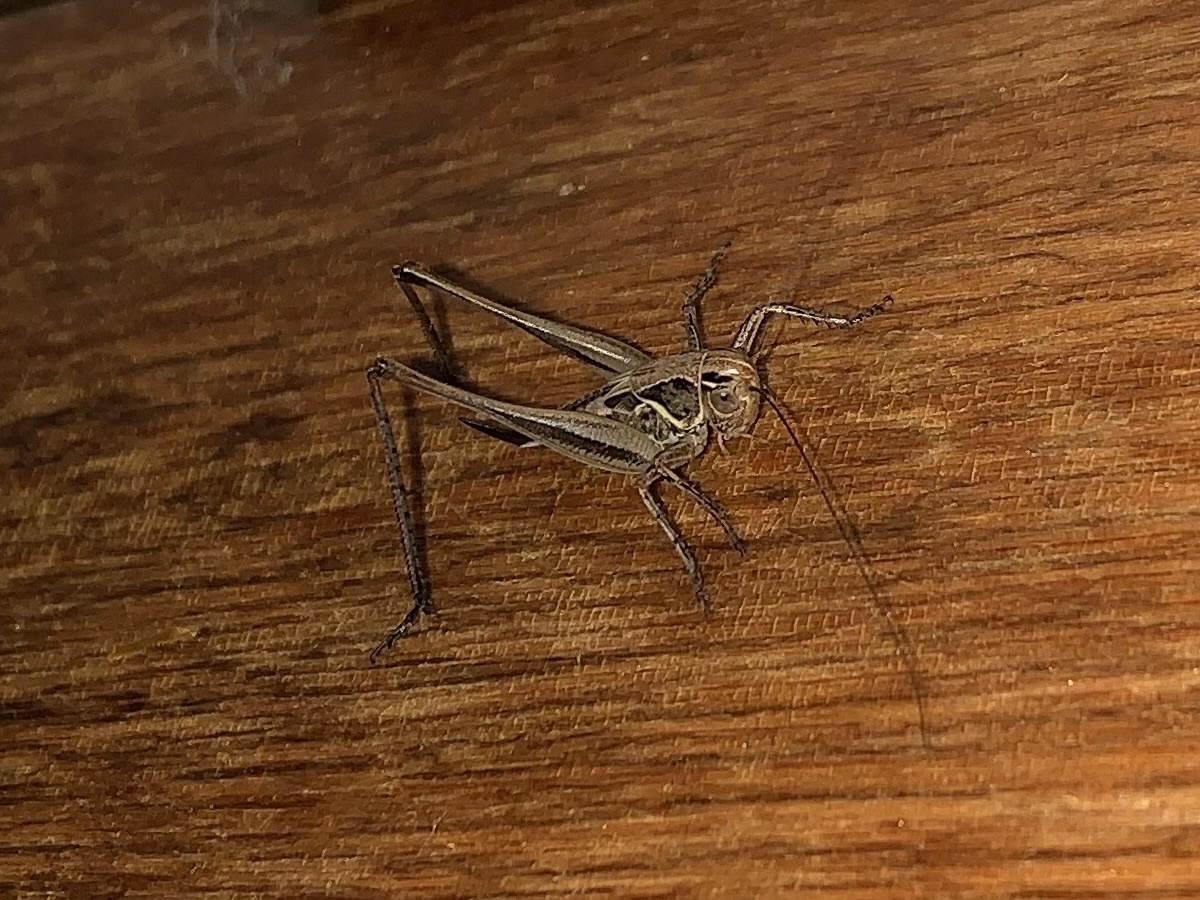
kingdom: Animalia
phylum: Arthropoda
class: Insecta
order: Orthoptera
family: Tettigoniidae
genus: Tessellana
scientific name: Tessellana veyseli
